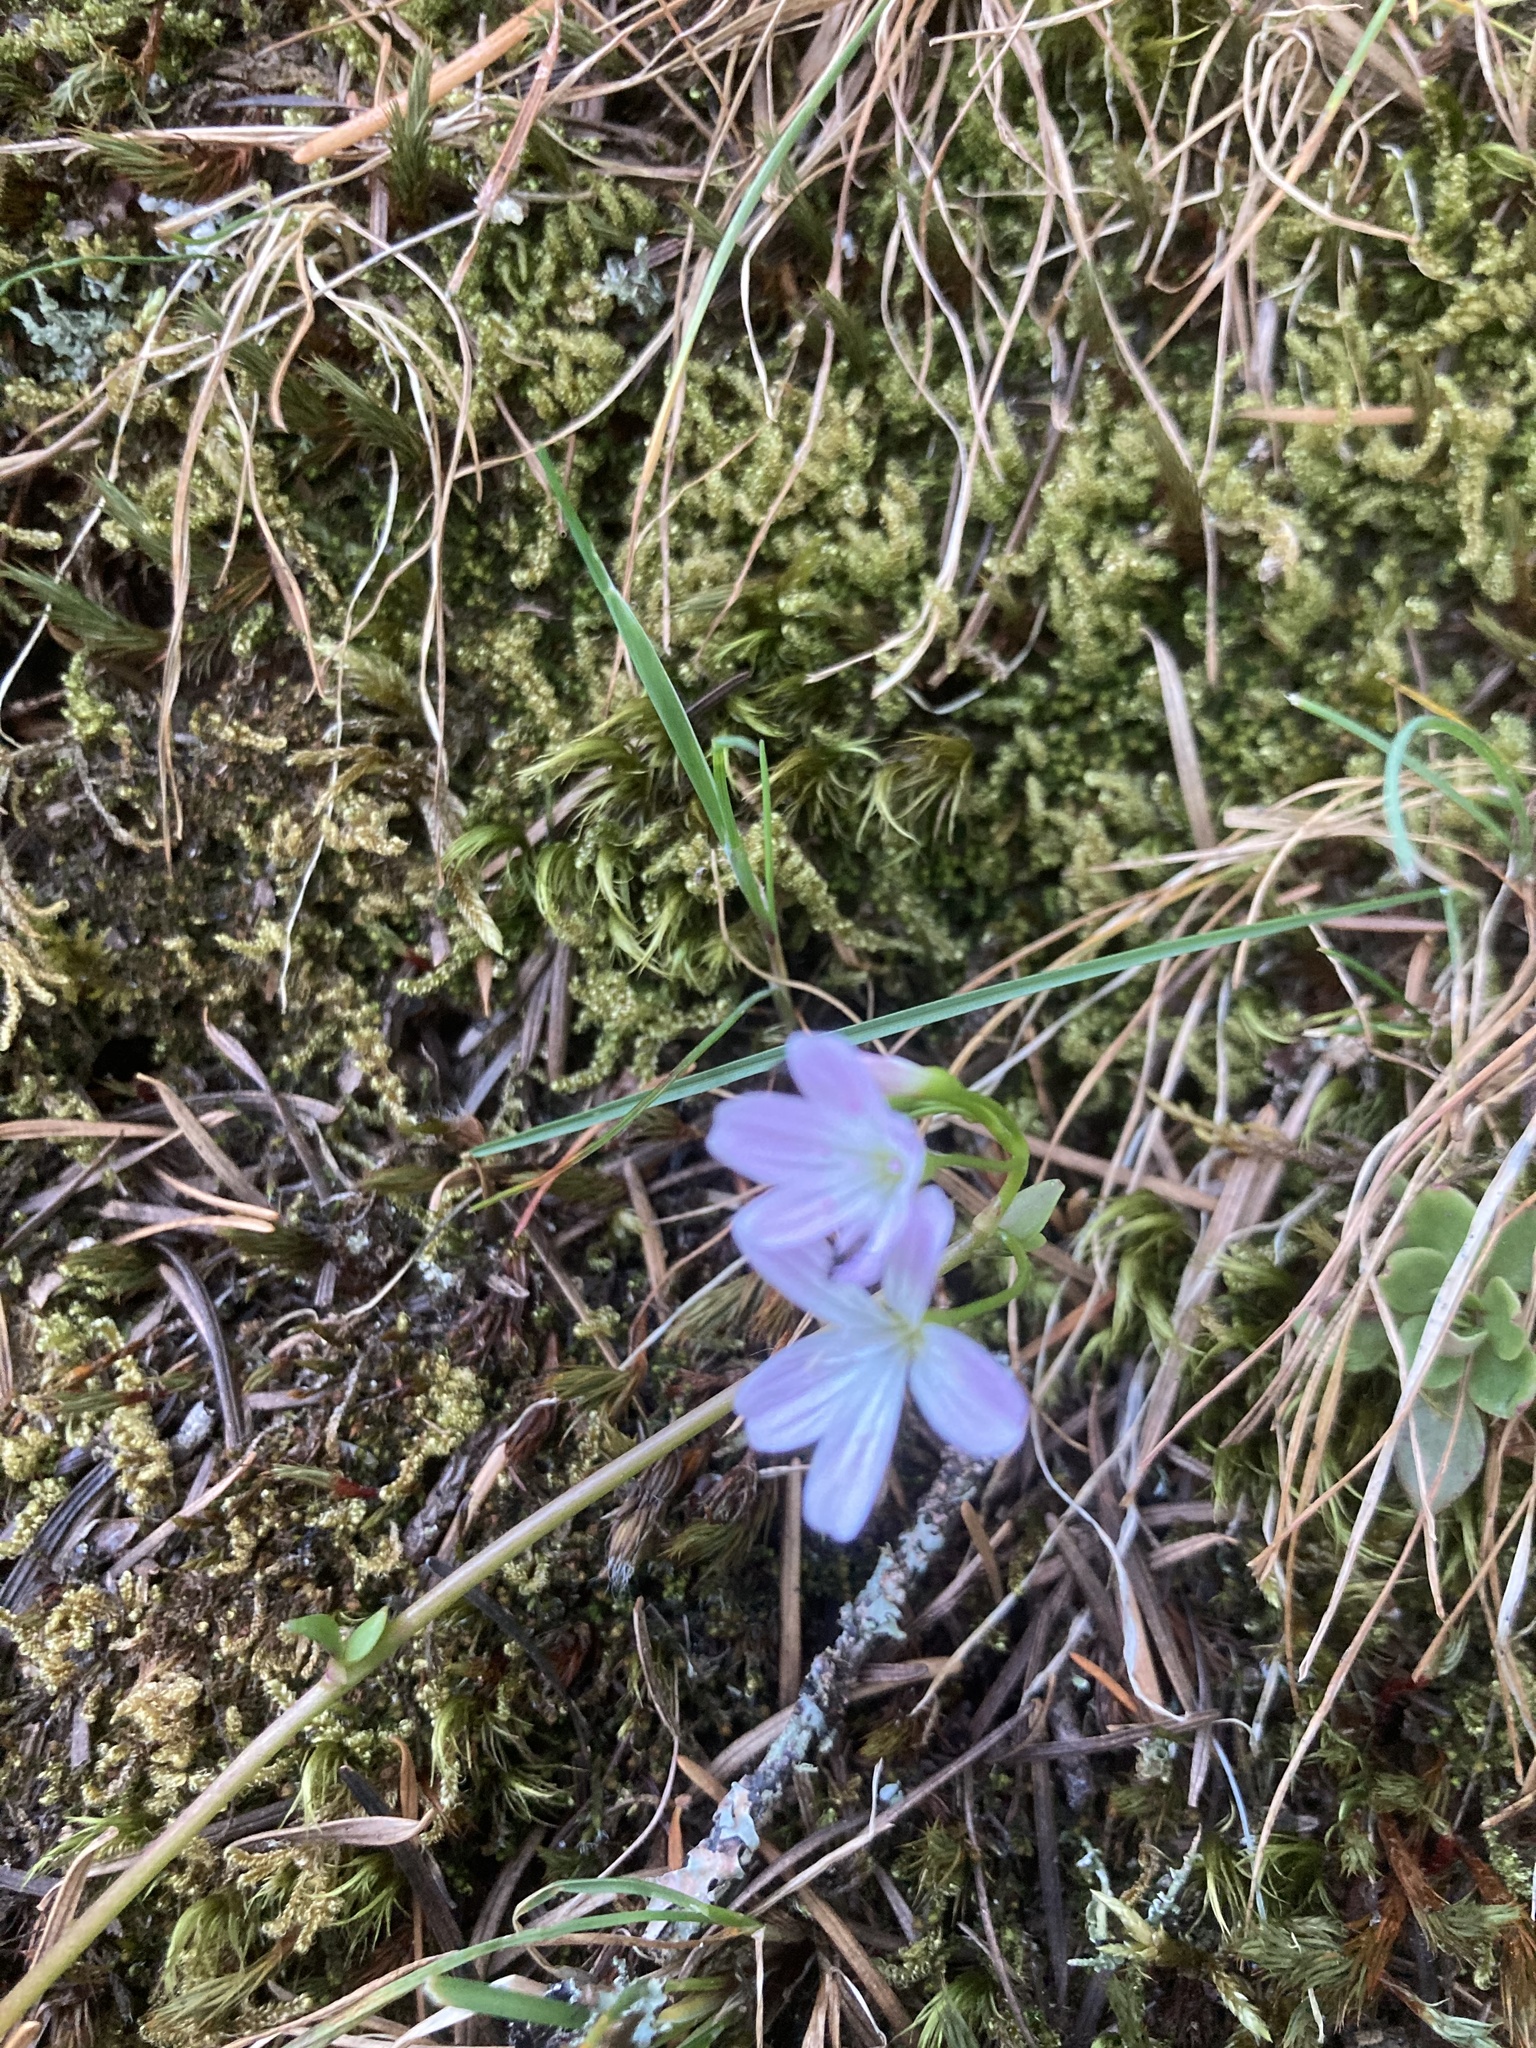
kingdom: Plantae
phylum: Tracheophyta
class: Magnoliopsida
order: Caryophyllales
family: Montiaceae
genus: Montia
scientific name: Montia parvifolia
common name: Small-leaved blinks
